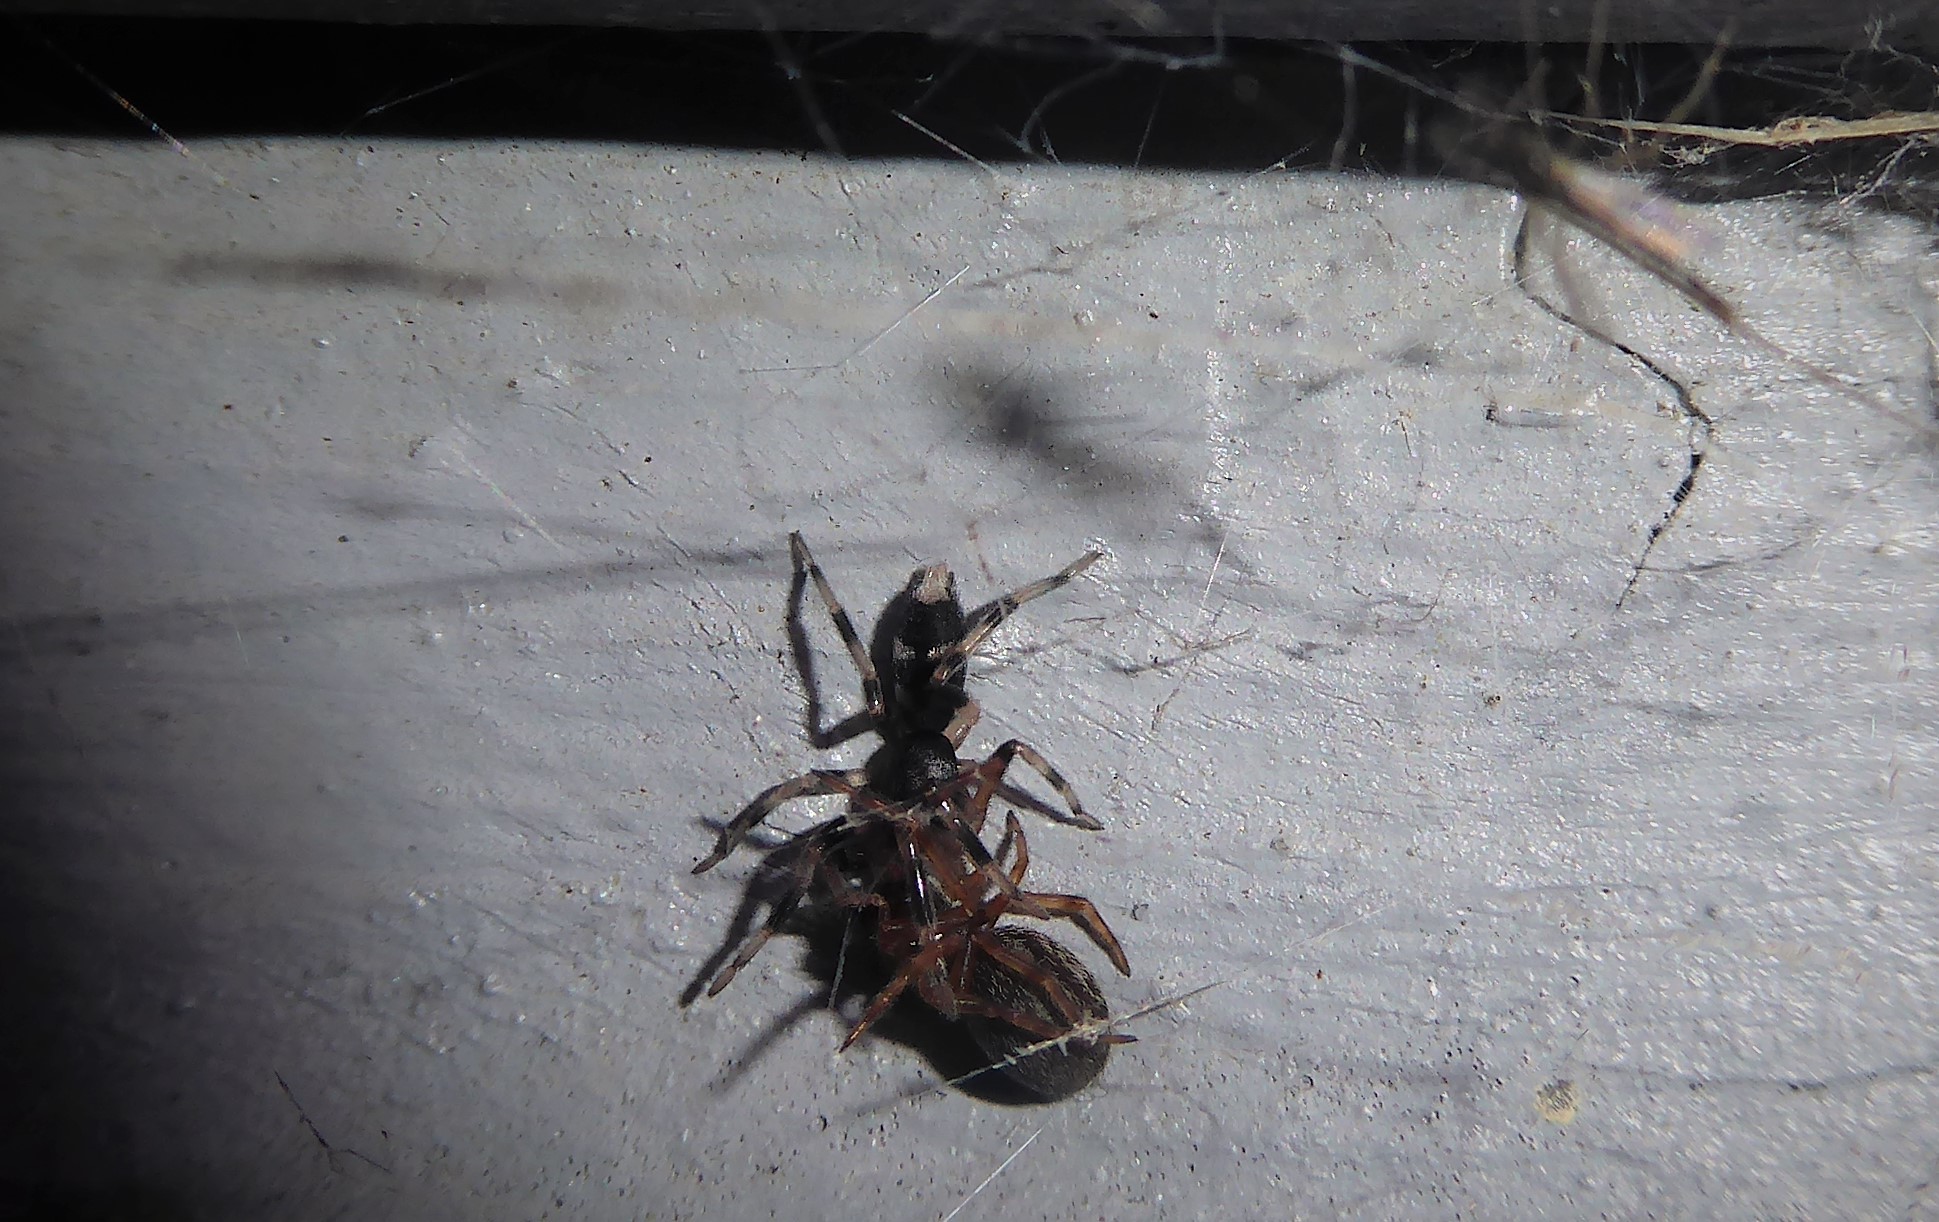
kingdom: Animalia
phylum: Arthropoda
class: Arachnida
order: Araneae
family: Lamponidae
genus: Lampona
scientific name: Lampona cylindrata
